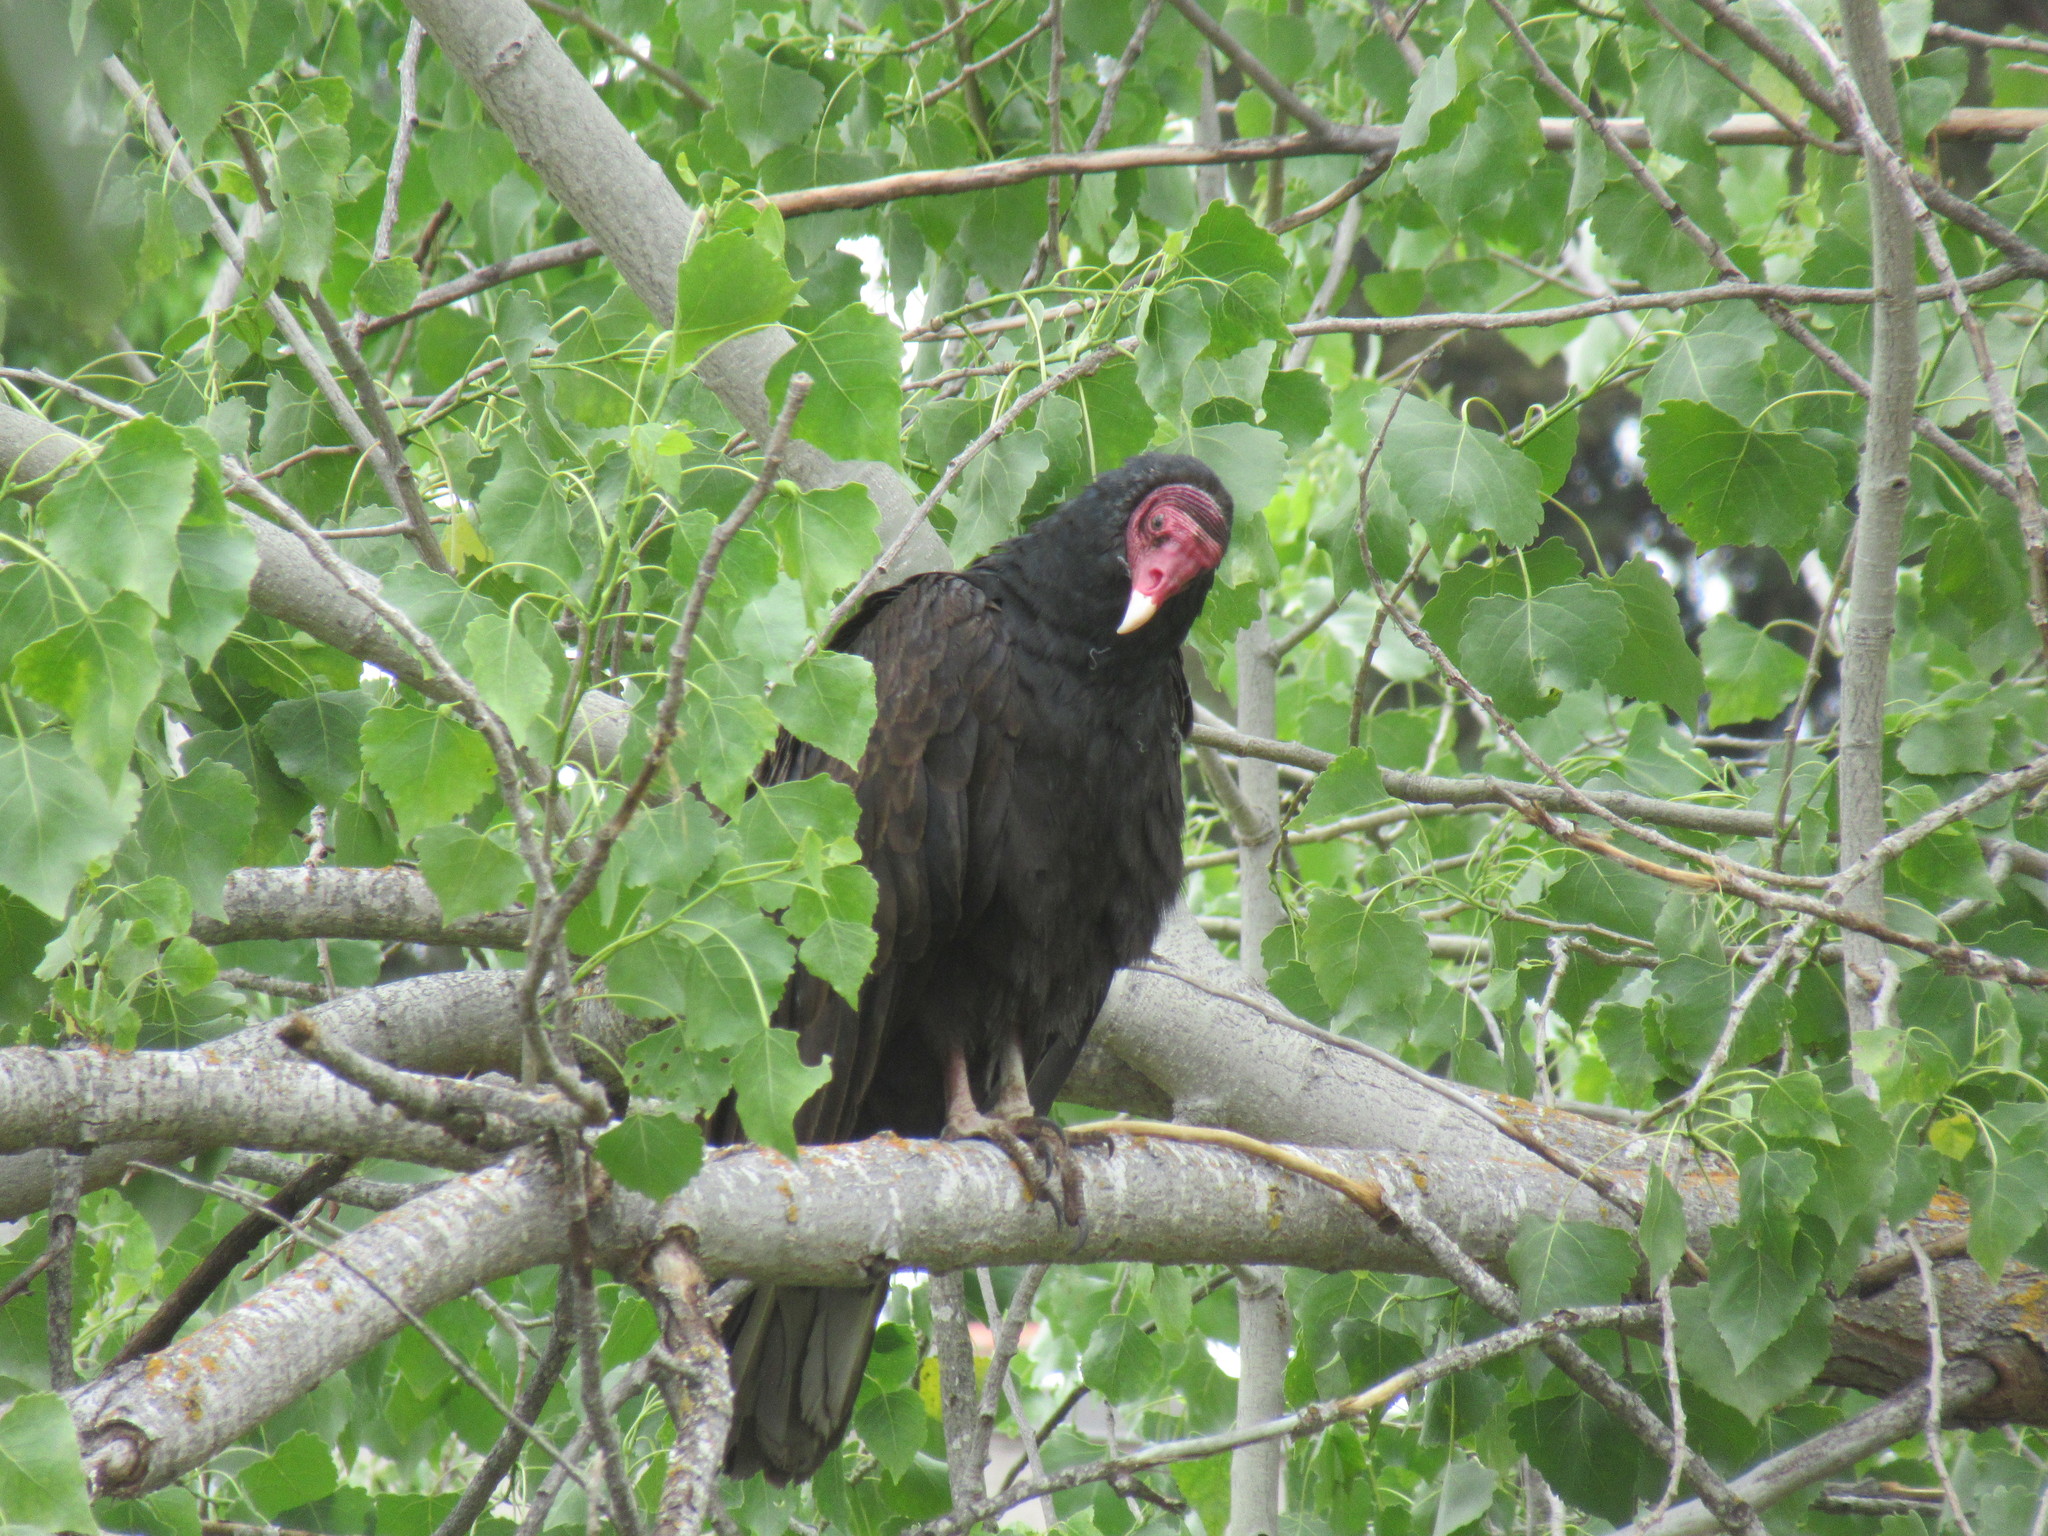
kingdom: Animalia
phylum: Chordata
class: Aves
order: Accipitriformes
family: Cathartidae
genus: Cathartes
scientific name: Cathartes aura
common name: Turkey vulture
